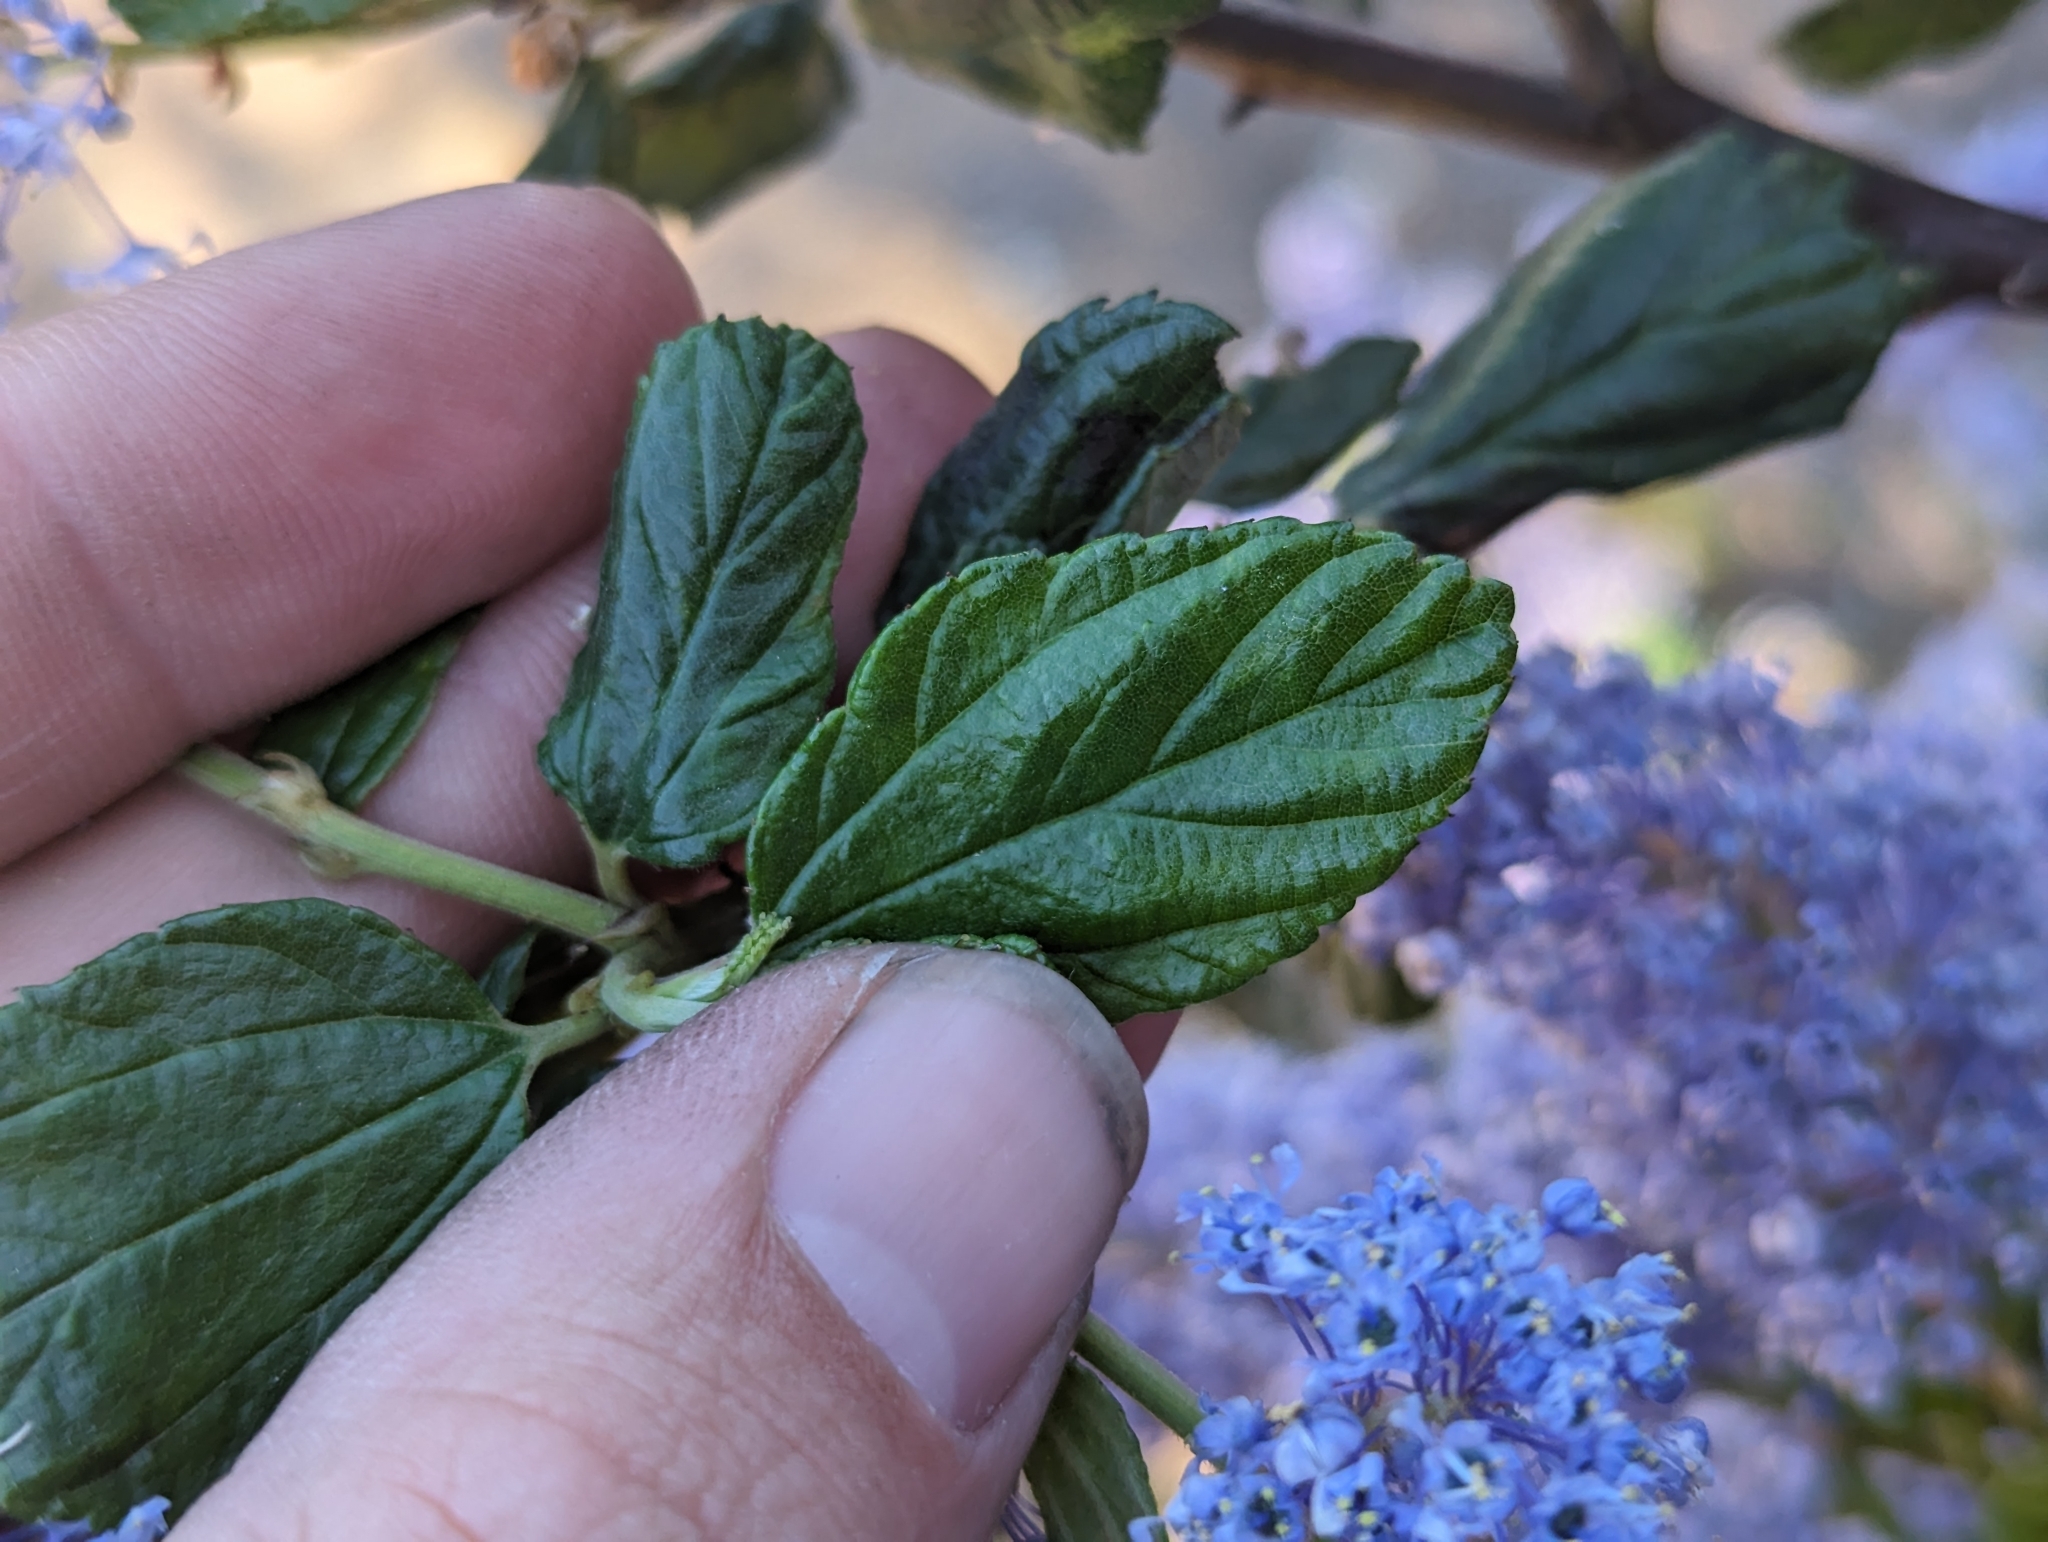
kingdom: Plantae
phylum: Tracheophyta
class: Magnoliopsida
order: Rosales
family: Rhamnaceae
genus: Ceanothus
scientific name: Ceanothus thyrsiflorus
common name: California-lilac
